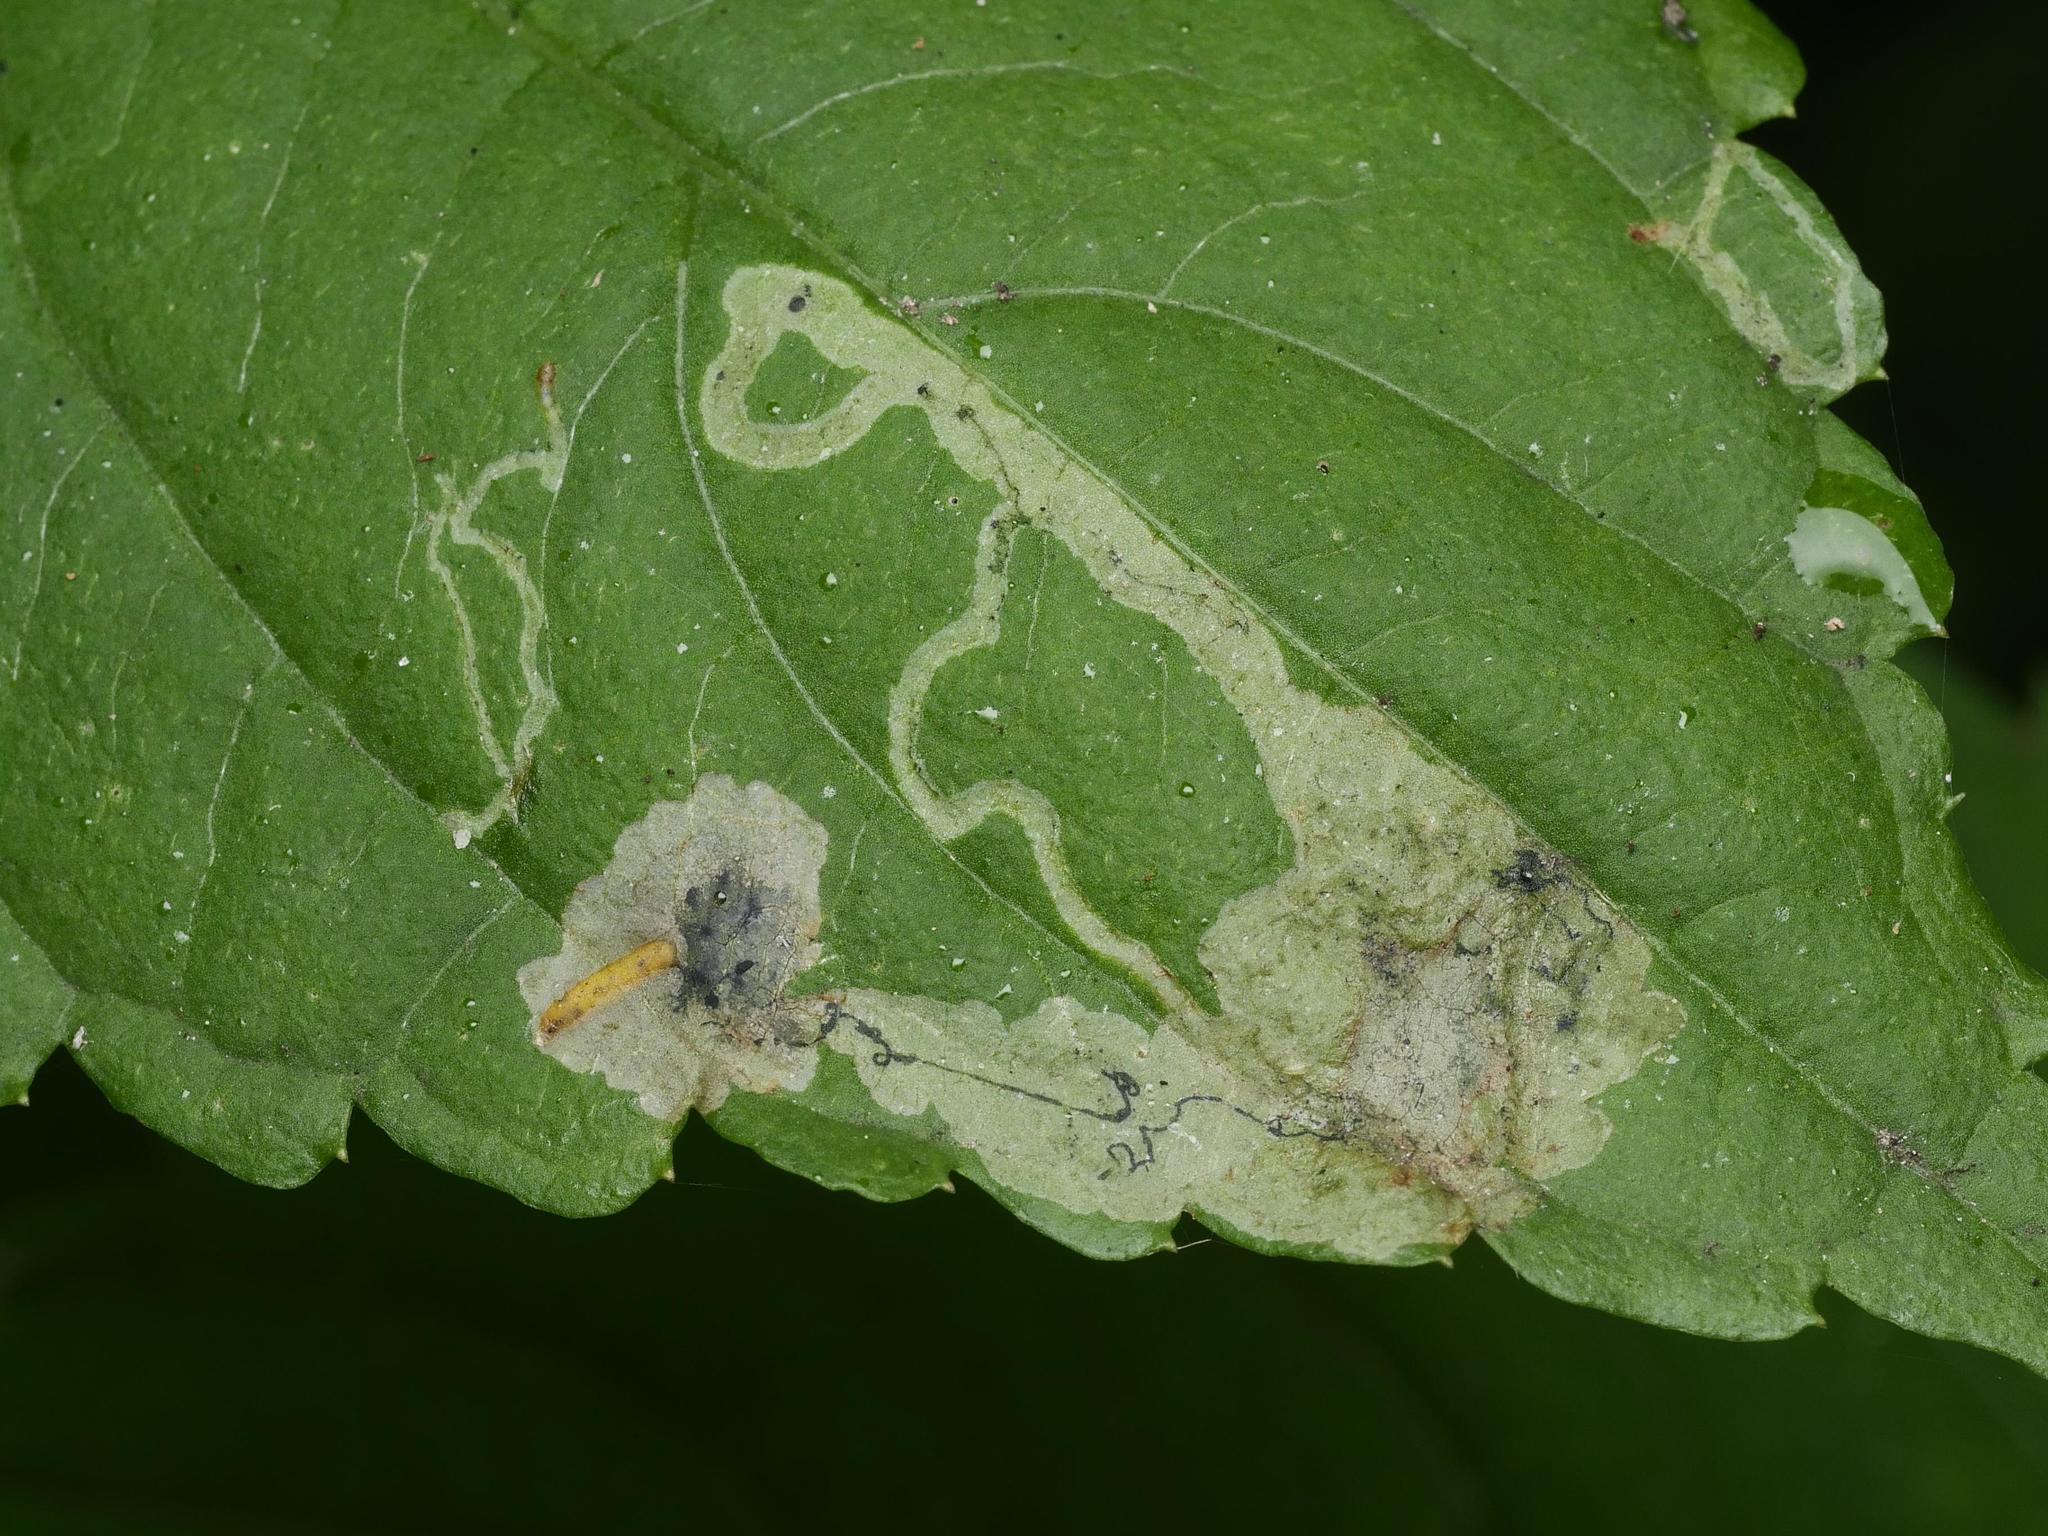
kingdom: Animalia
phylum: Arthropoda
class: Insecta
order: Diptera
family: Agromyzidae
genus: Phytoliriomyza
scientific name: Phytoliriomyza melampyga
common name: Jewelweed leaf-miner fly
